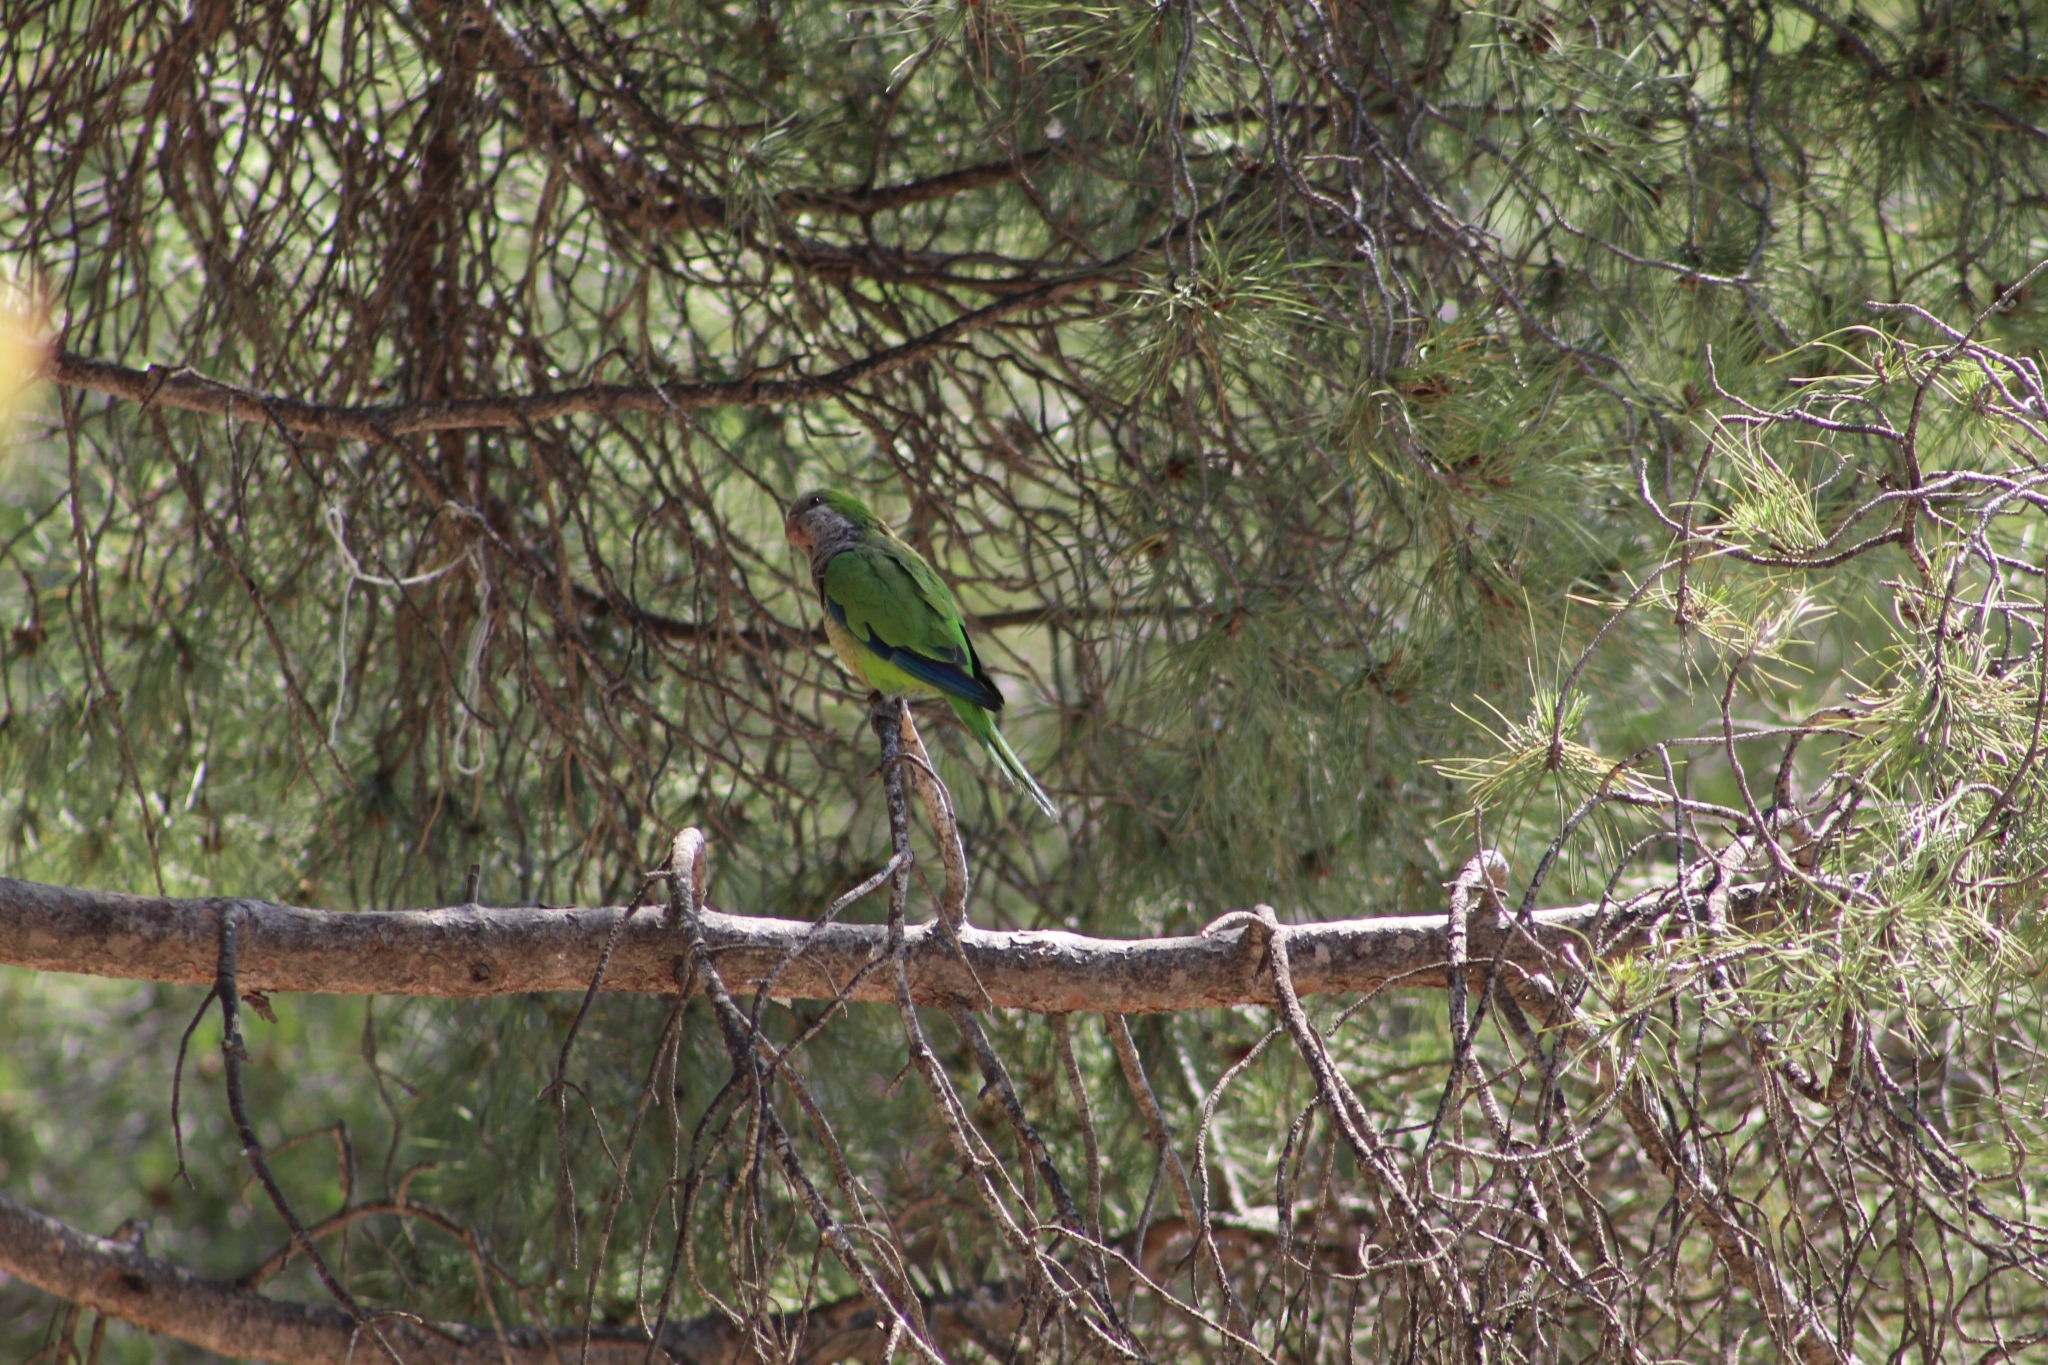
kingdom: Animalia
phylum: Chordata
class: Aves
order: Psittaciformes
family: Psittacidae
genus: Myiopsitta
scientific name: Myiopsitta monachus
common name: Monk parakeet
